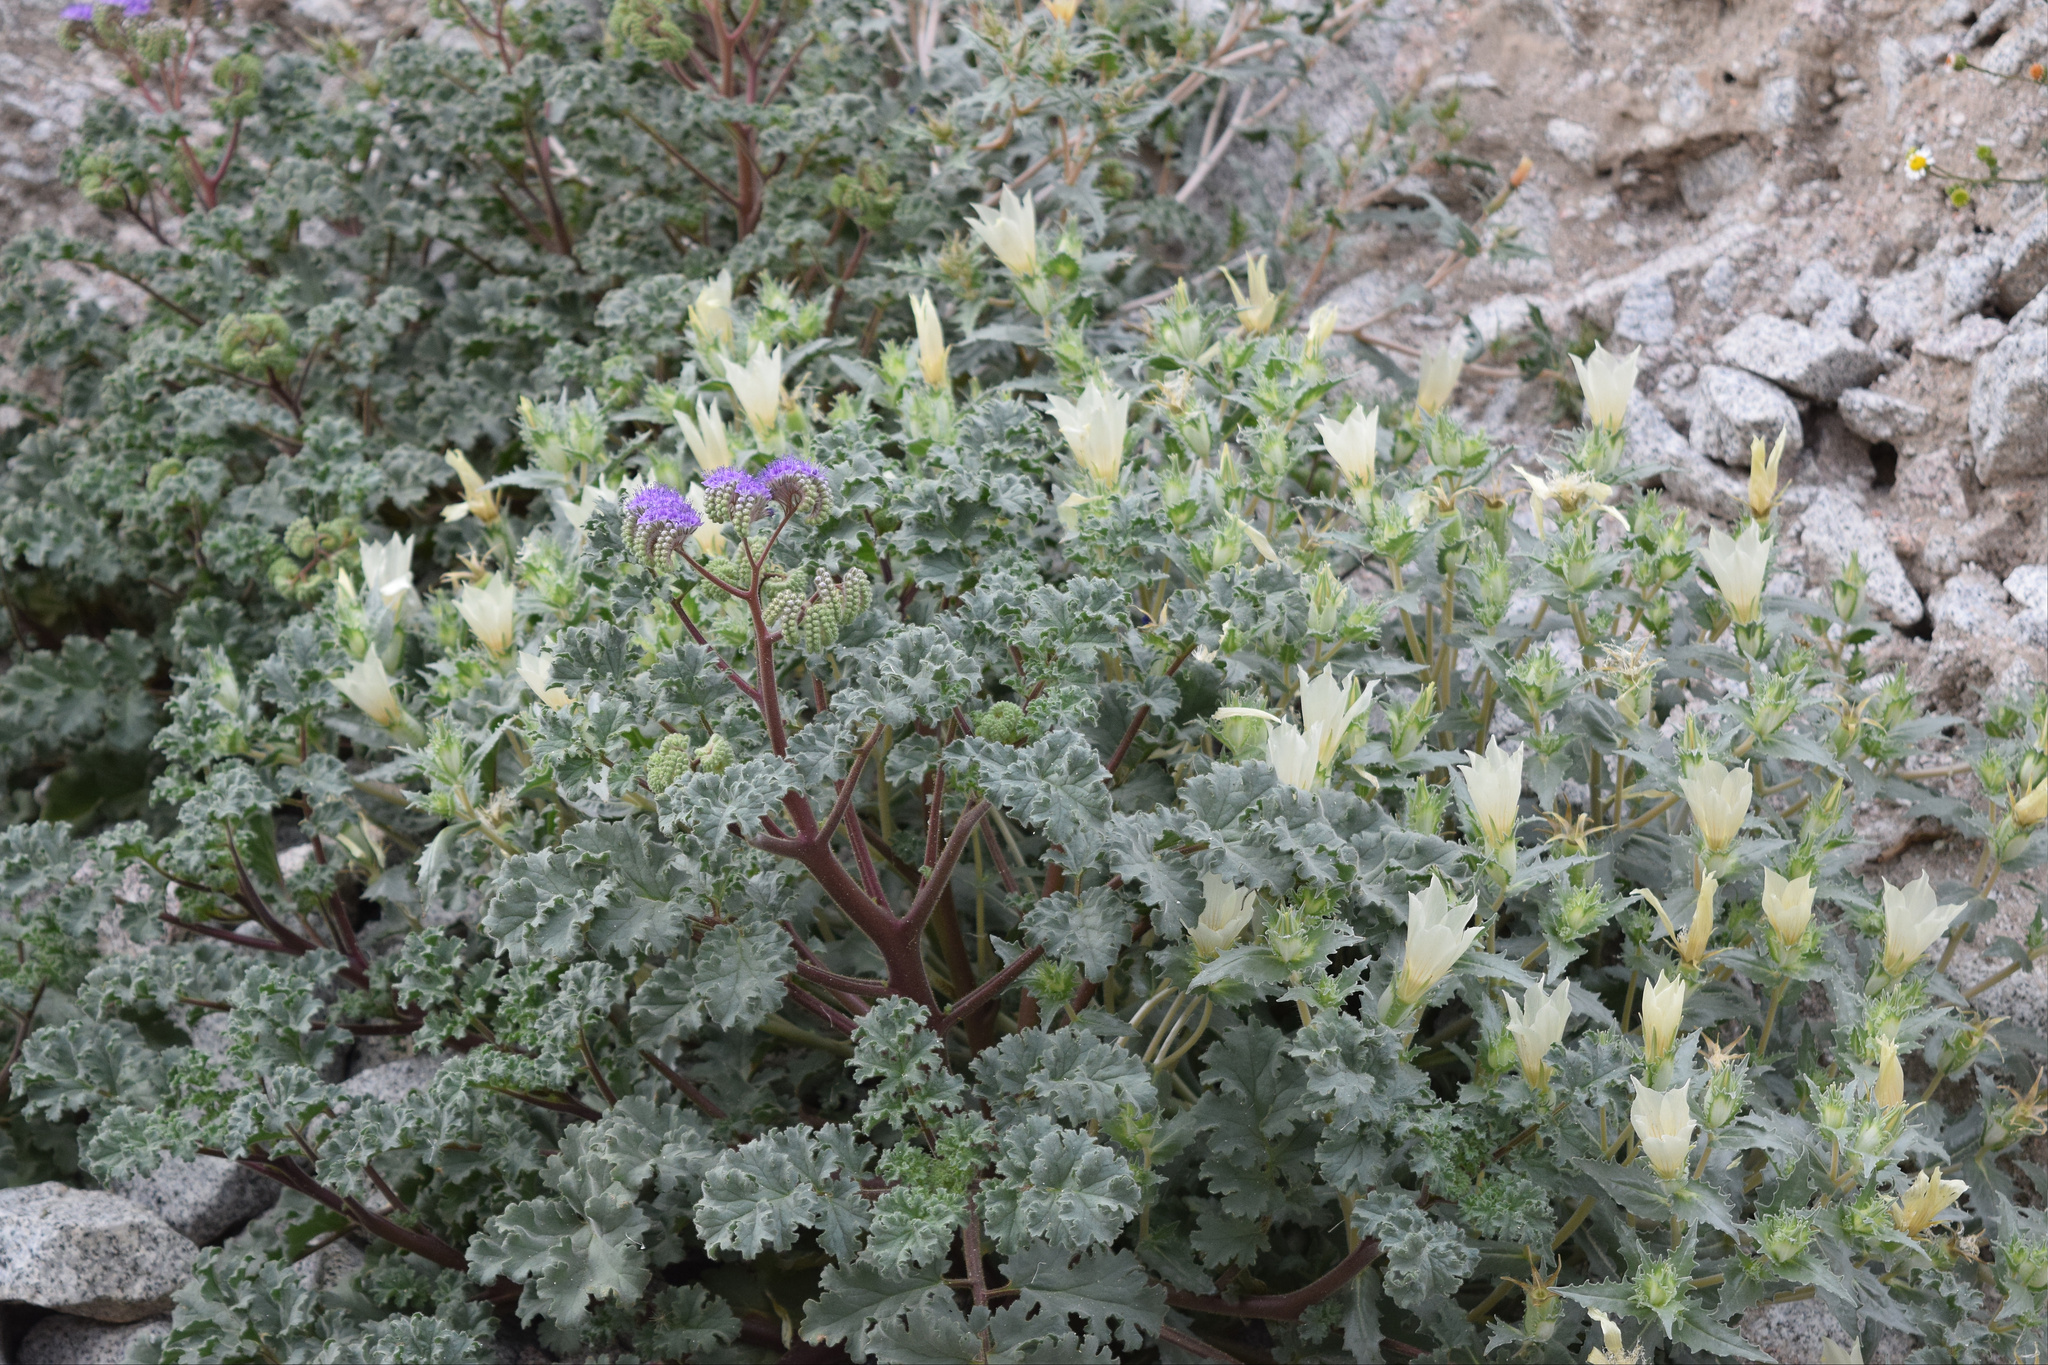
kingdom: Plantae
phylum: Tracheophyta
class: Magnoliopsida
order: Cornales
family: Loasaceae
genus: Mentzelia
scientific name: Mentzelia involucrata
